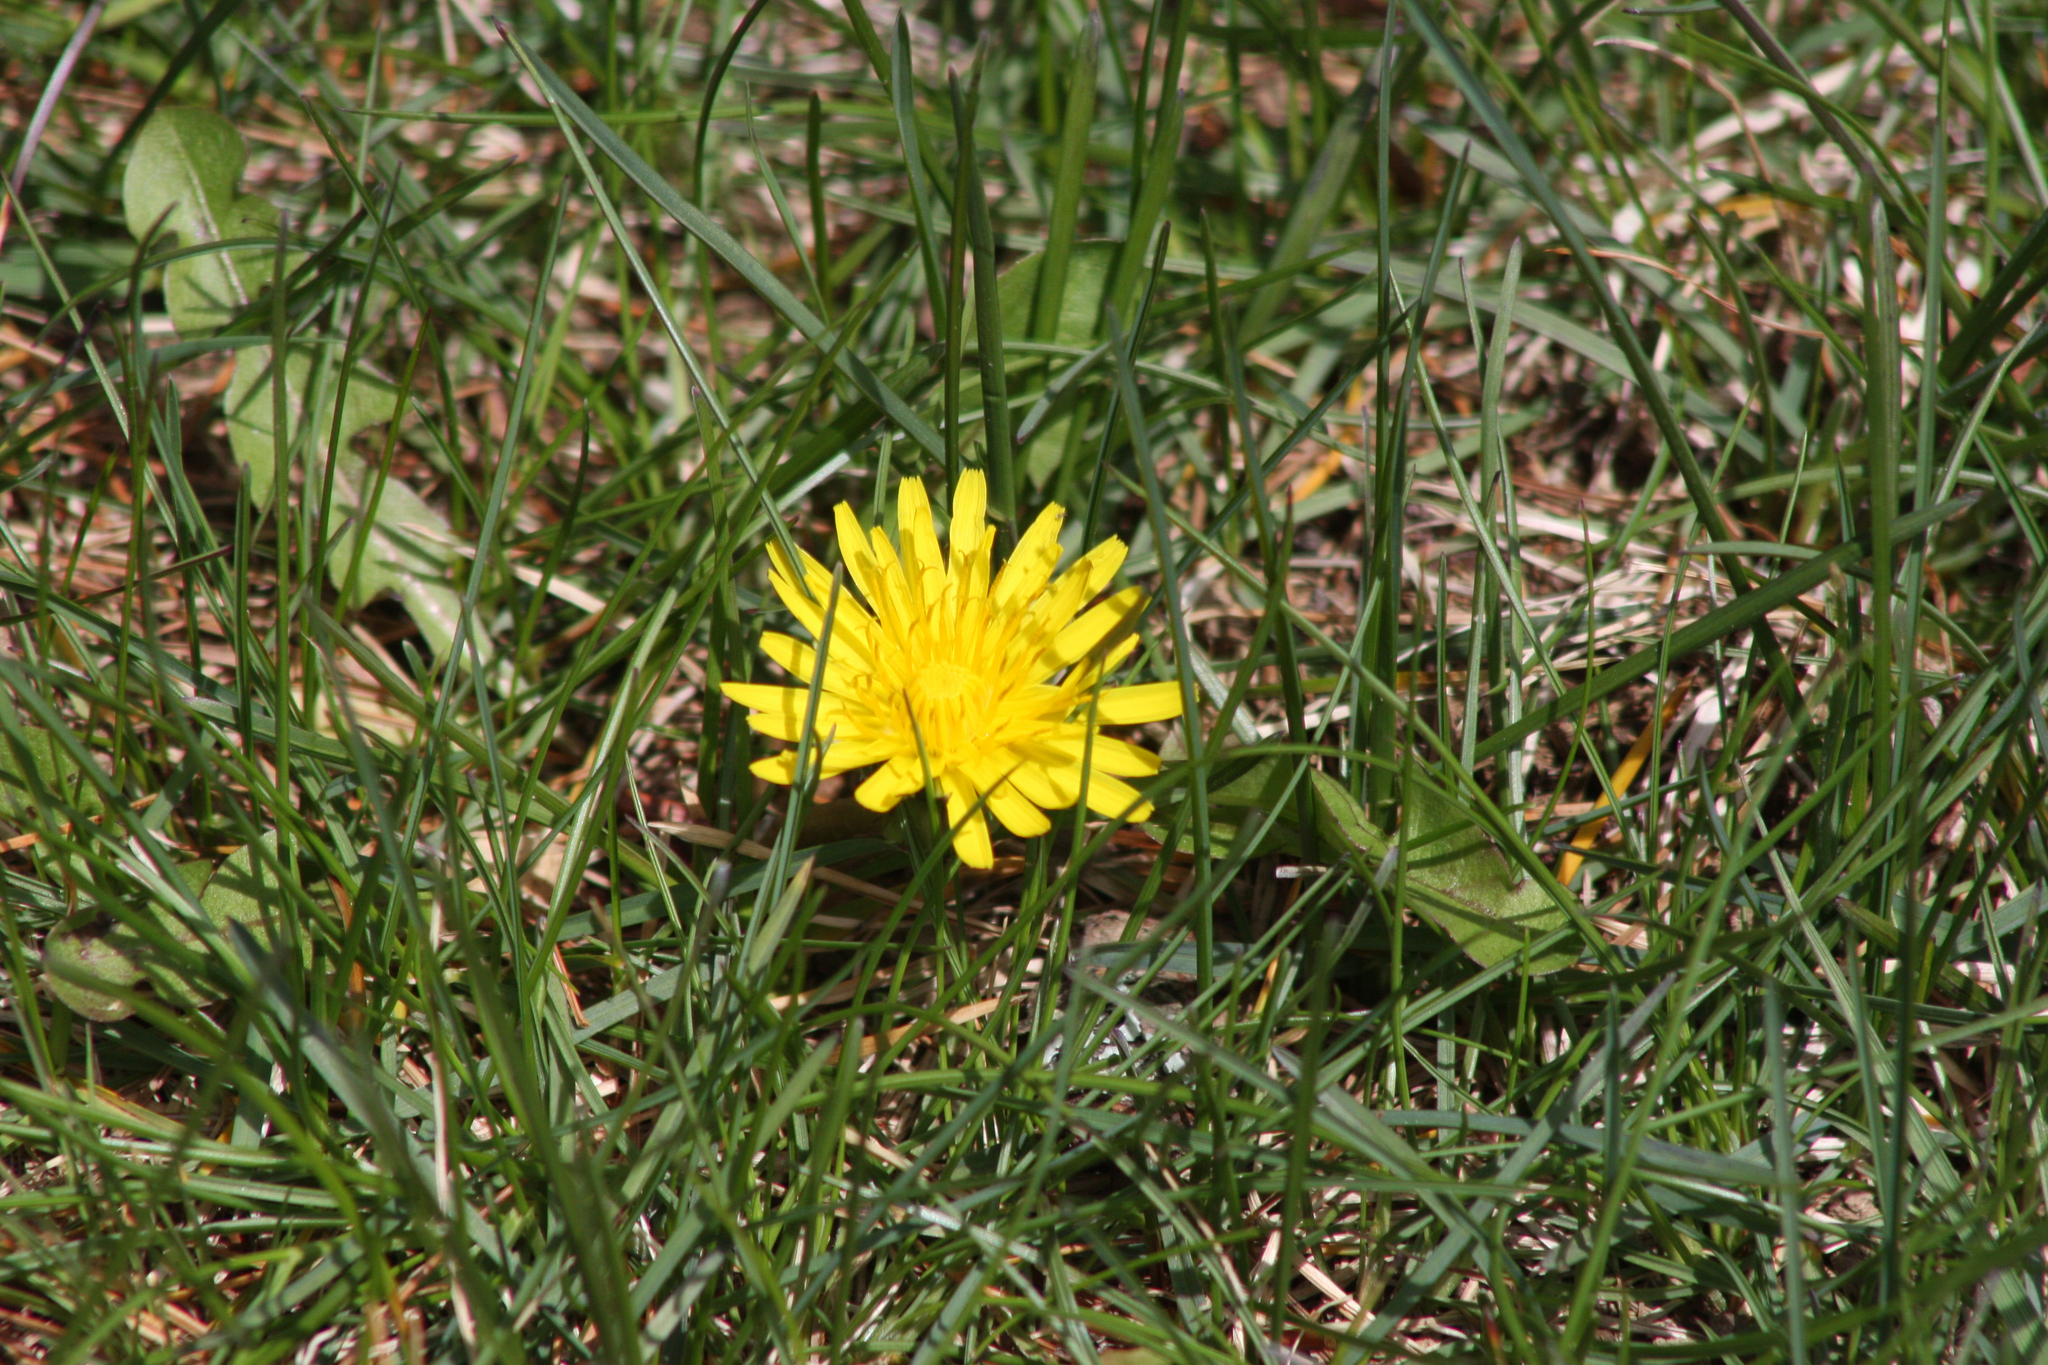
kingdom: Plantae
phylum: Tracheophyta
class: Magnoliopsida
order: Asterales
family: Asteraceae
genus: Taraxacum
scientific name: Taraxacum officinale
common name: Common dandelion
